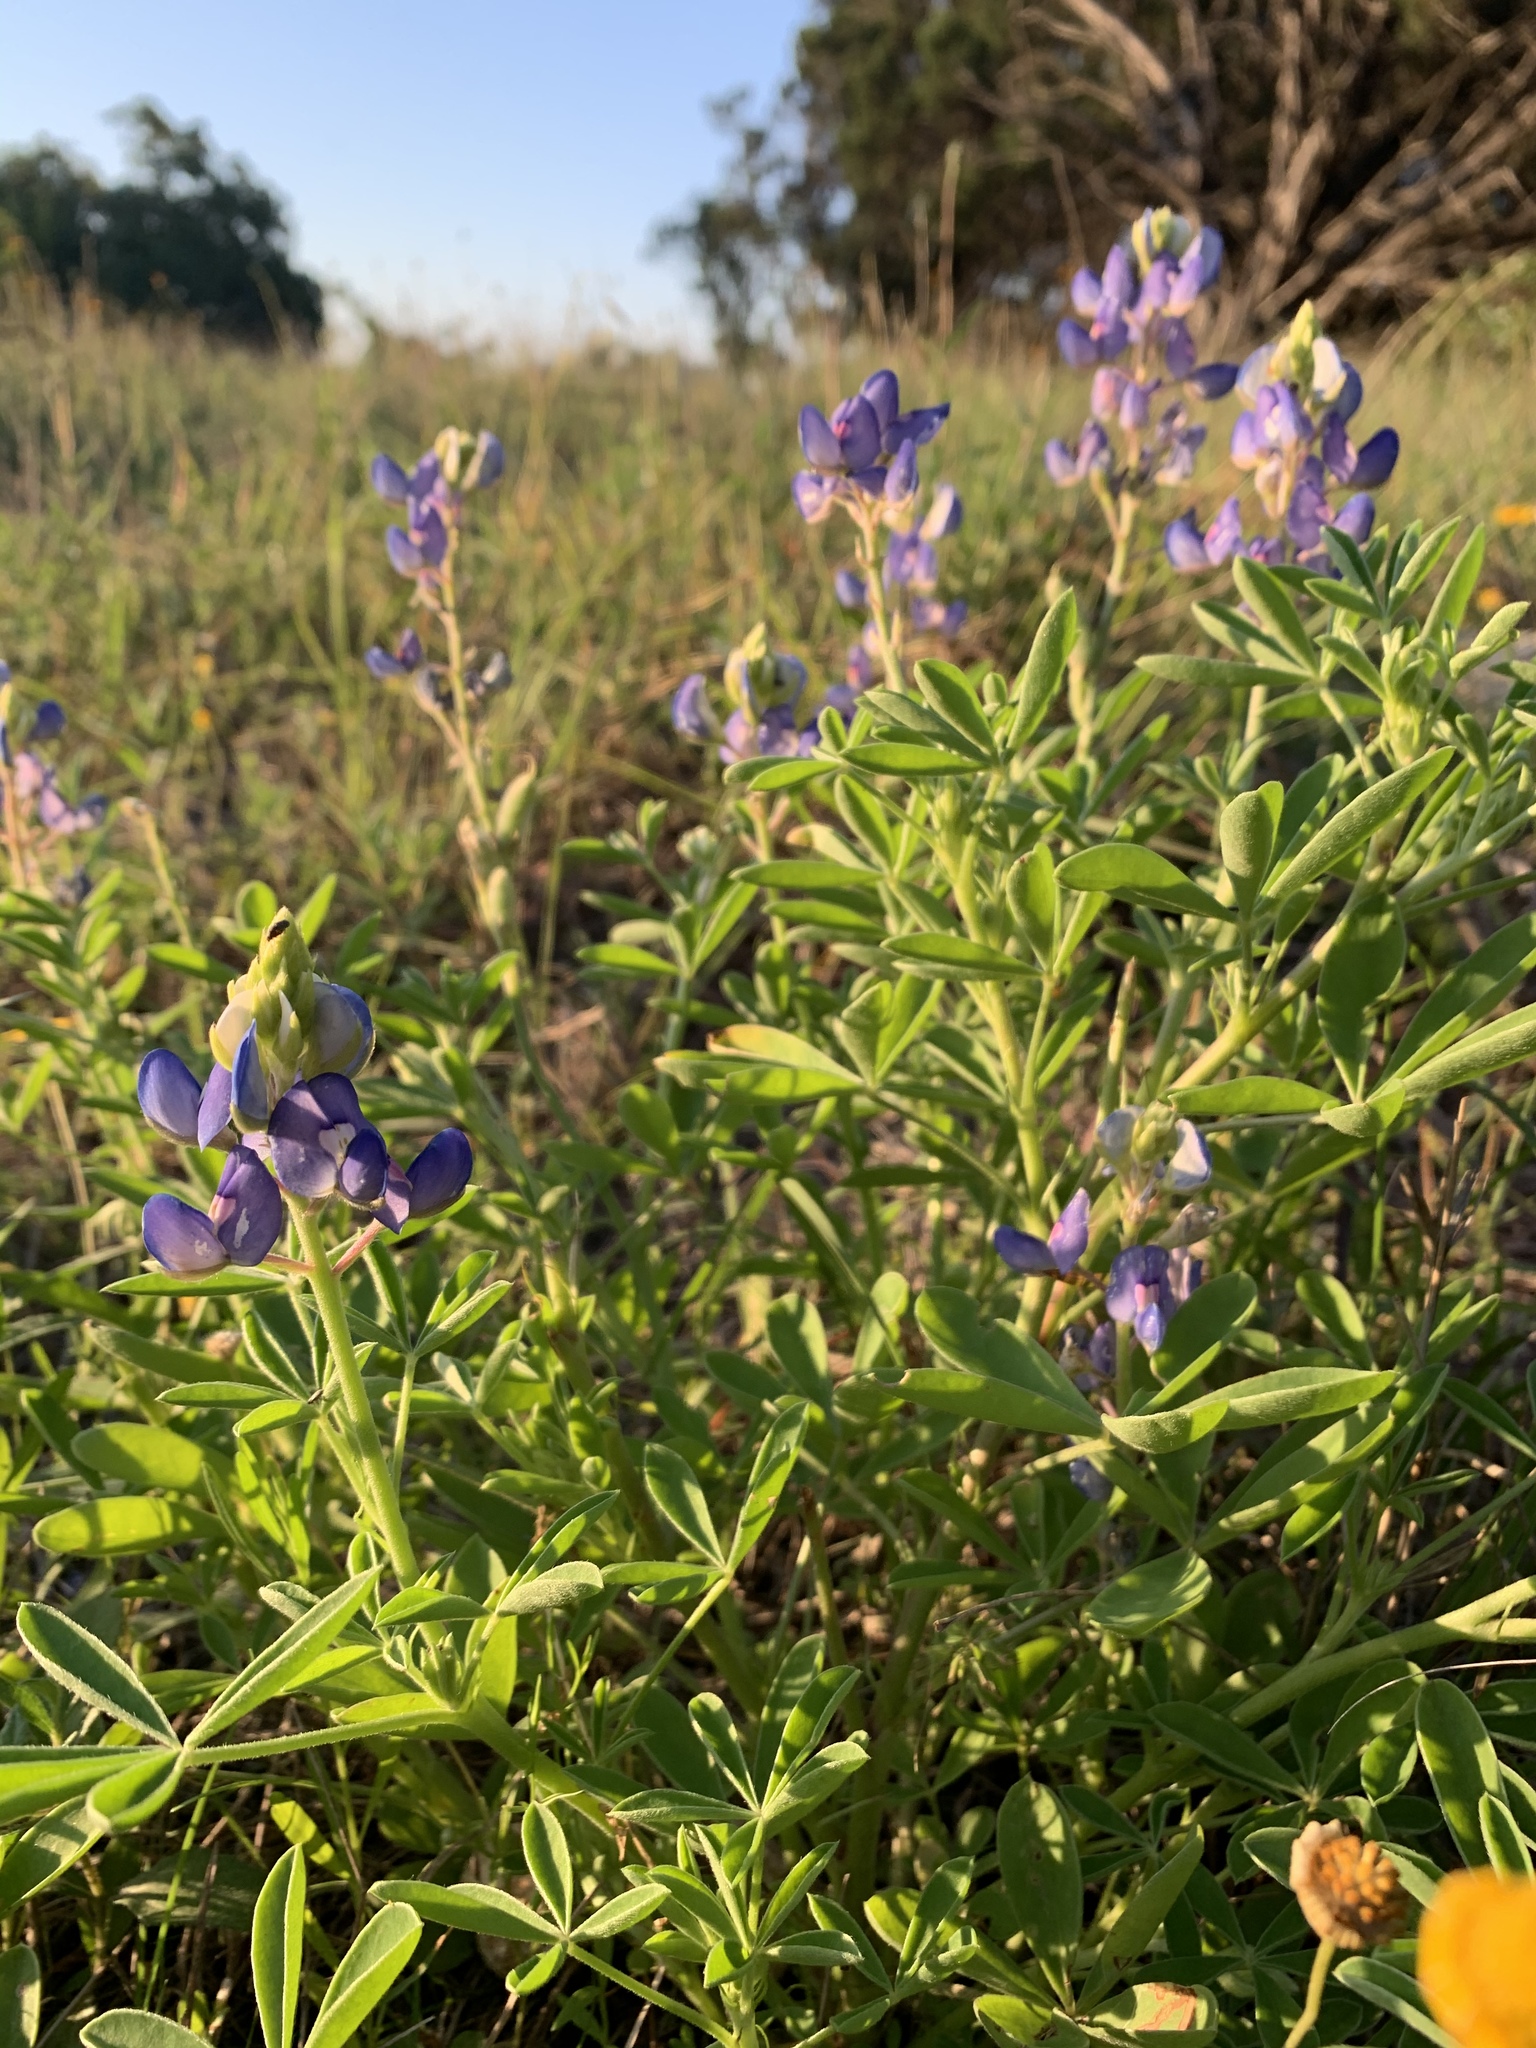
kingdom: Plantae
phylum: Tracheophyta
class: Magnoliopsida
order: Fabales
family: Fabaceae
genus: Lupinus
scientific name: Lupinus texensis
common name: Texas bluebonnet
